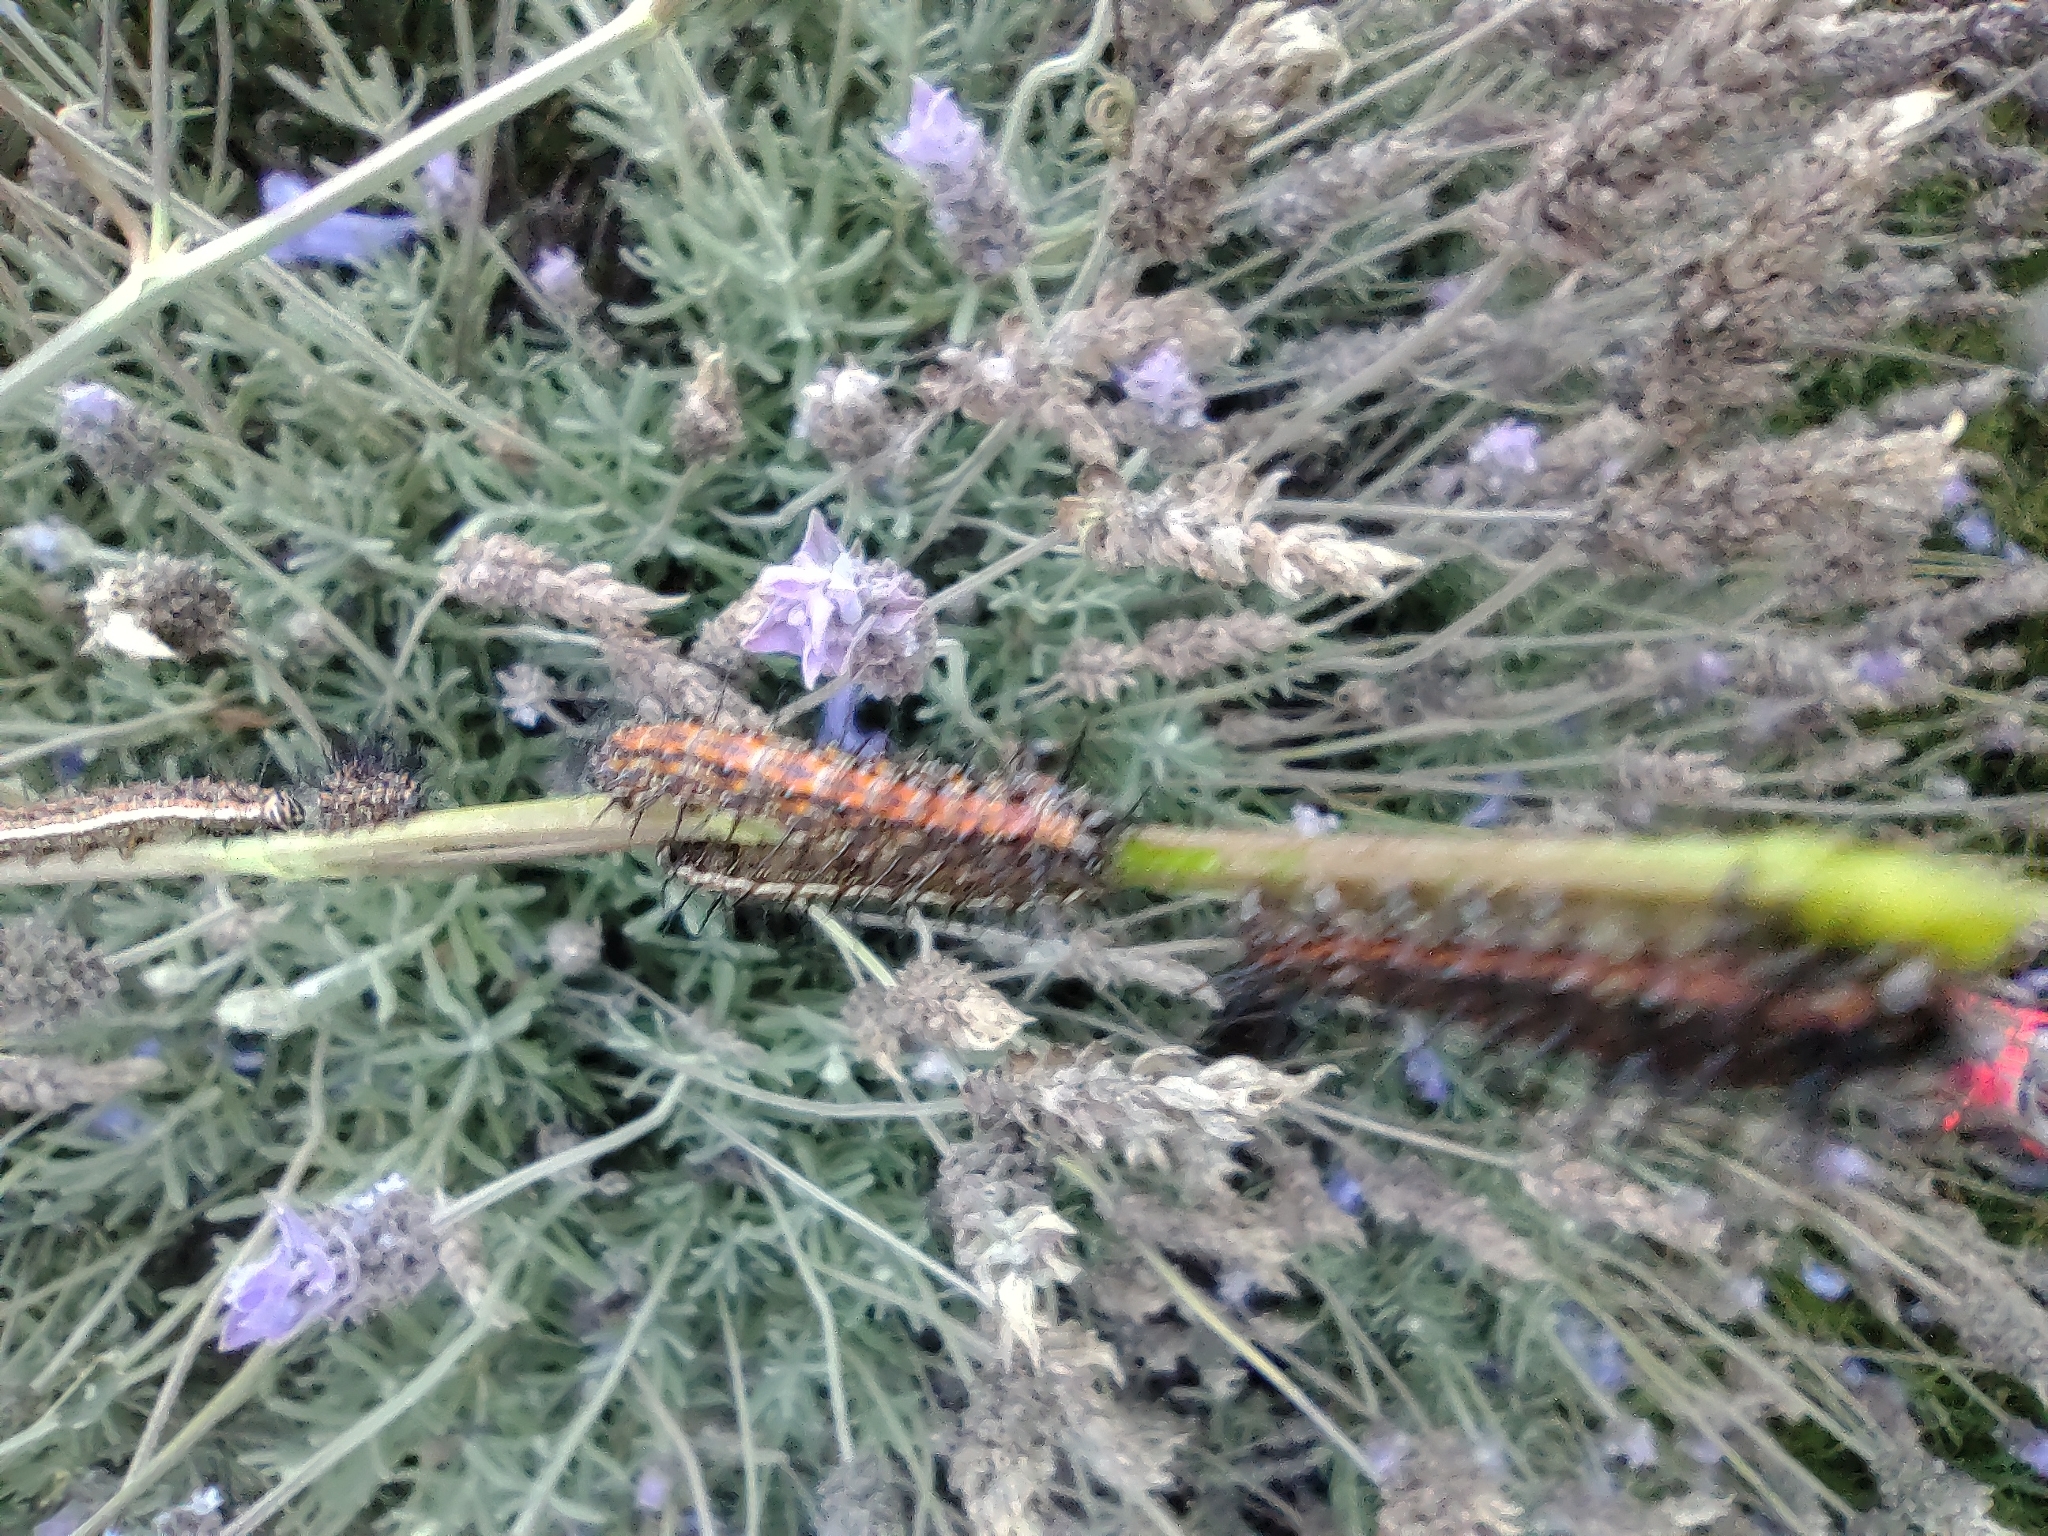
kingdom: Animalia
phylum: Arthropoda
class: Insecta
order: Lepidoptera
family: Nymphalidae
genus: Dione
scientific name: Dione vanillae
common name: Gulf fritillary
